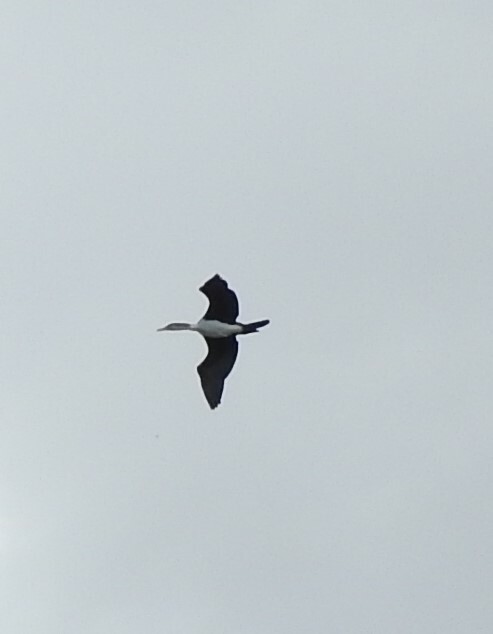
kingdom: Animalia
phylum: Chordata
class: Aves
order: Suliformes
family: Phalacrocoracidae
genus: Phalacrocorax
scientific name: Phalacrocorax carbo
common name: Great cormorant
